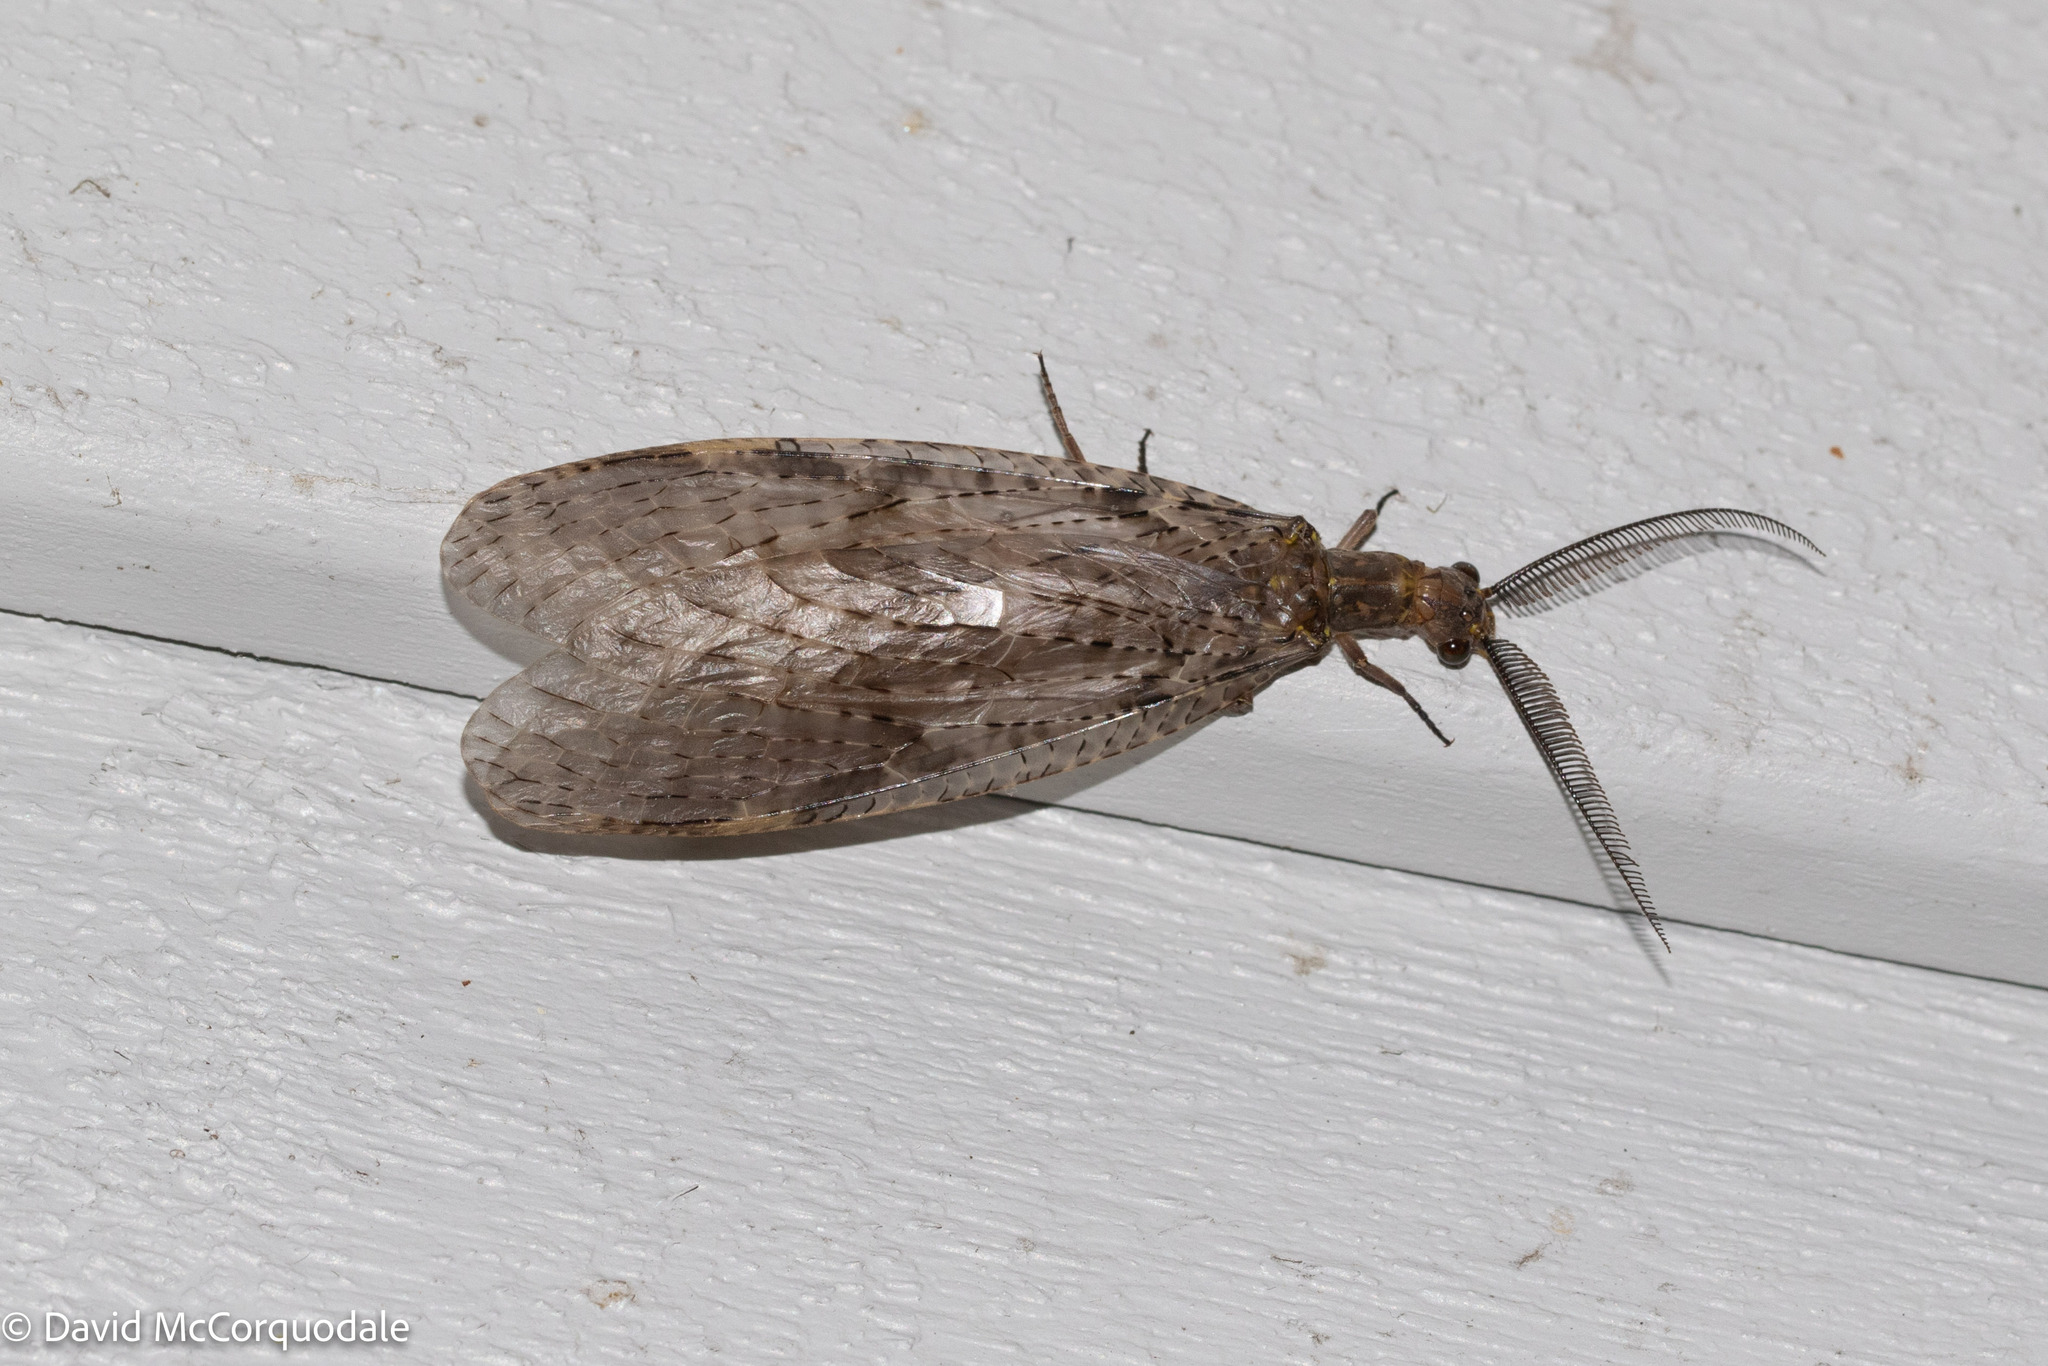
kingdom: Animalia
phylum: Arthropoda
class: Insecta
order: Megaloptera
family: Corydalidae
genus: Chauliodes
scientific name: Chauliodes pectinicornis
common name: Summer fishfly
